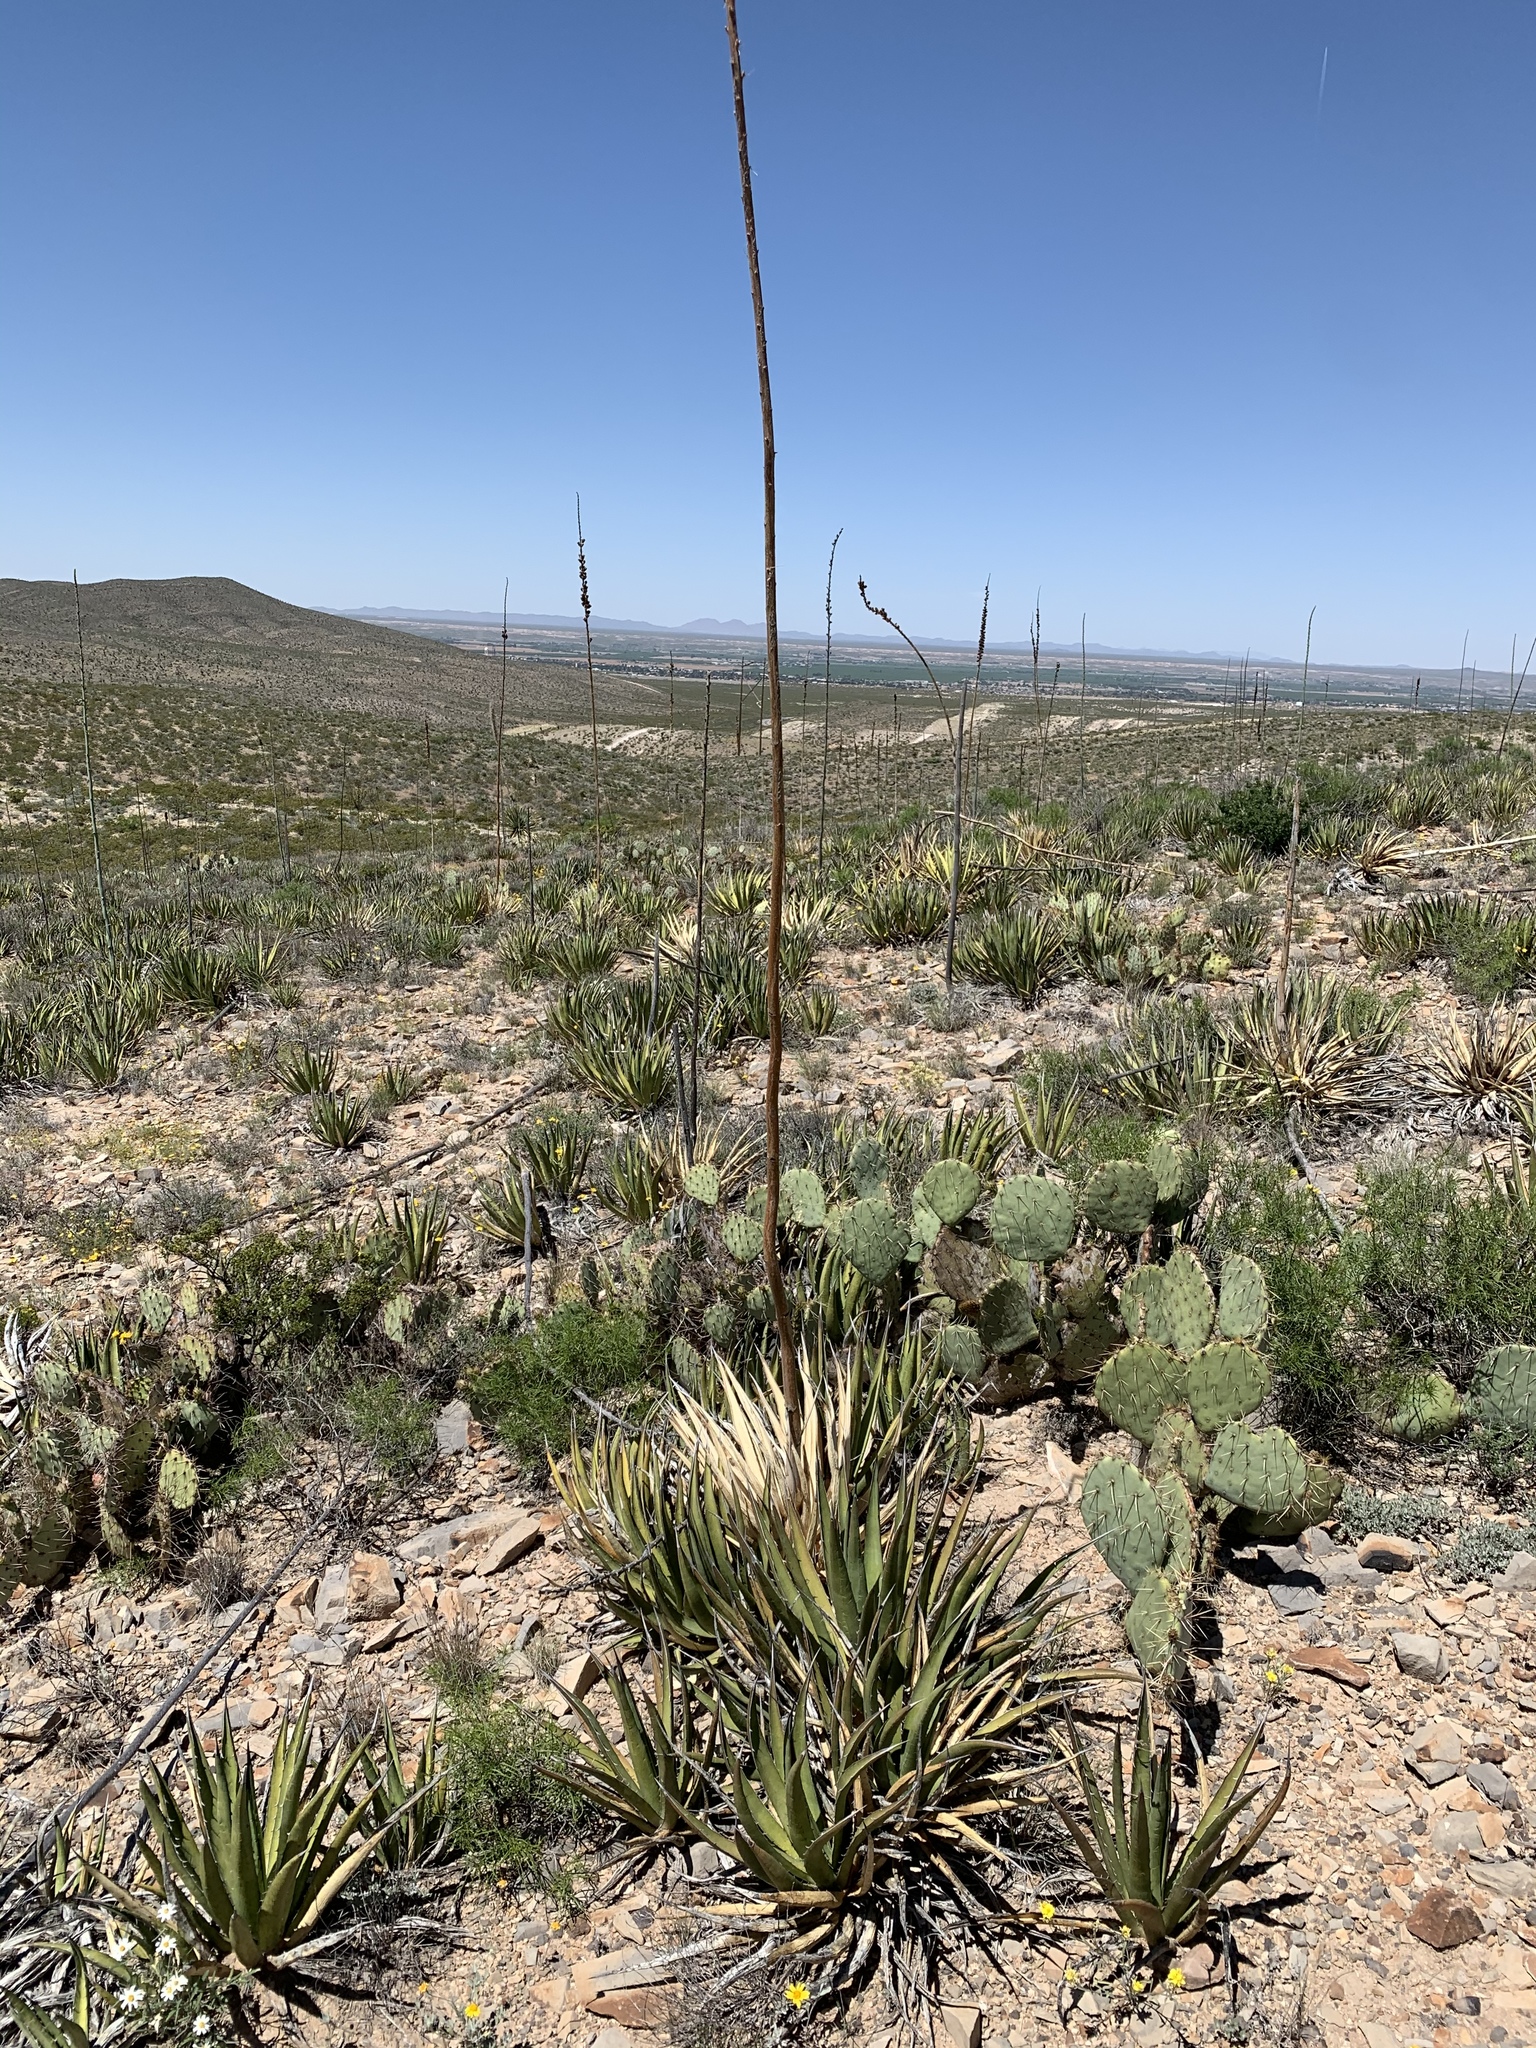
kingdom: Plantae
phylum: Tracheophyta
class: Liliopsida
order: Asparagales
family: Asparagaceae
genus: Agave
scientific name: Agave lechuguilla
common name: Lecheguilla agave
